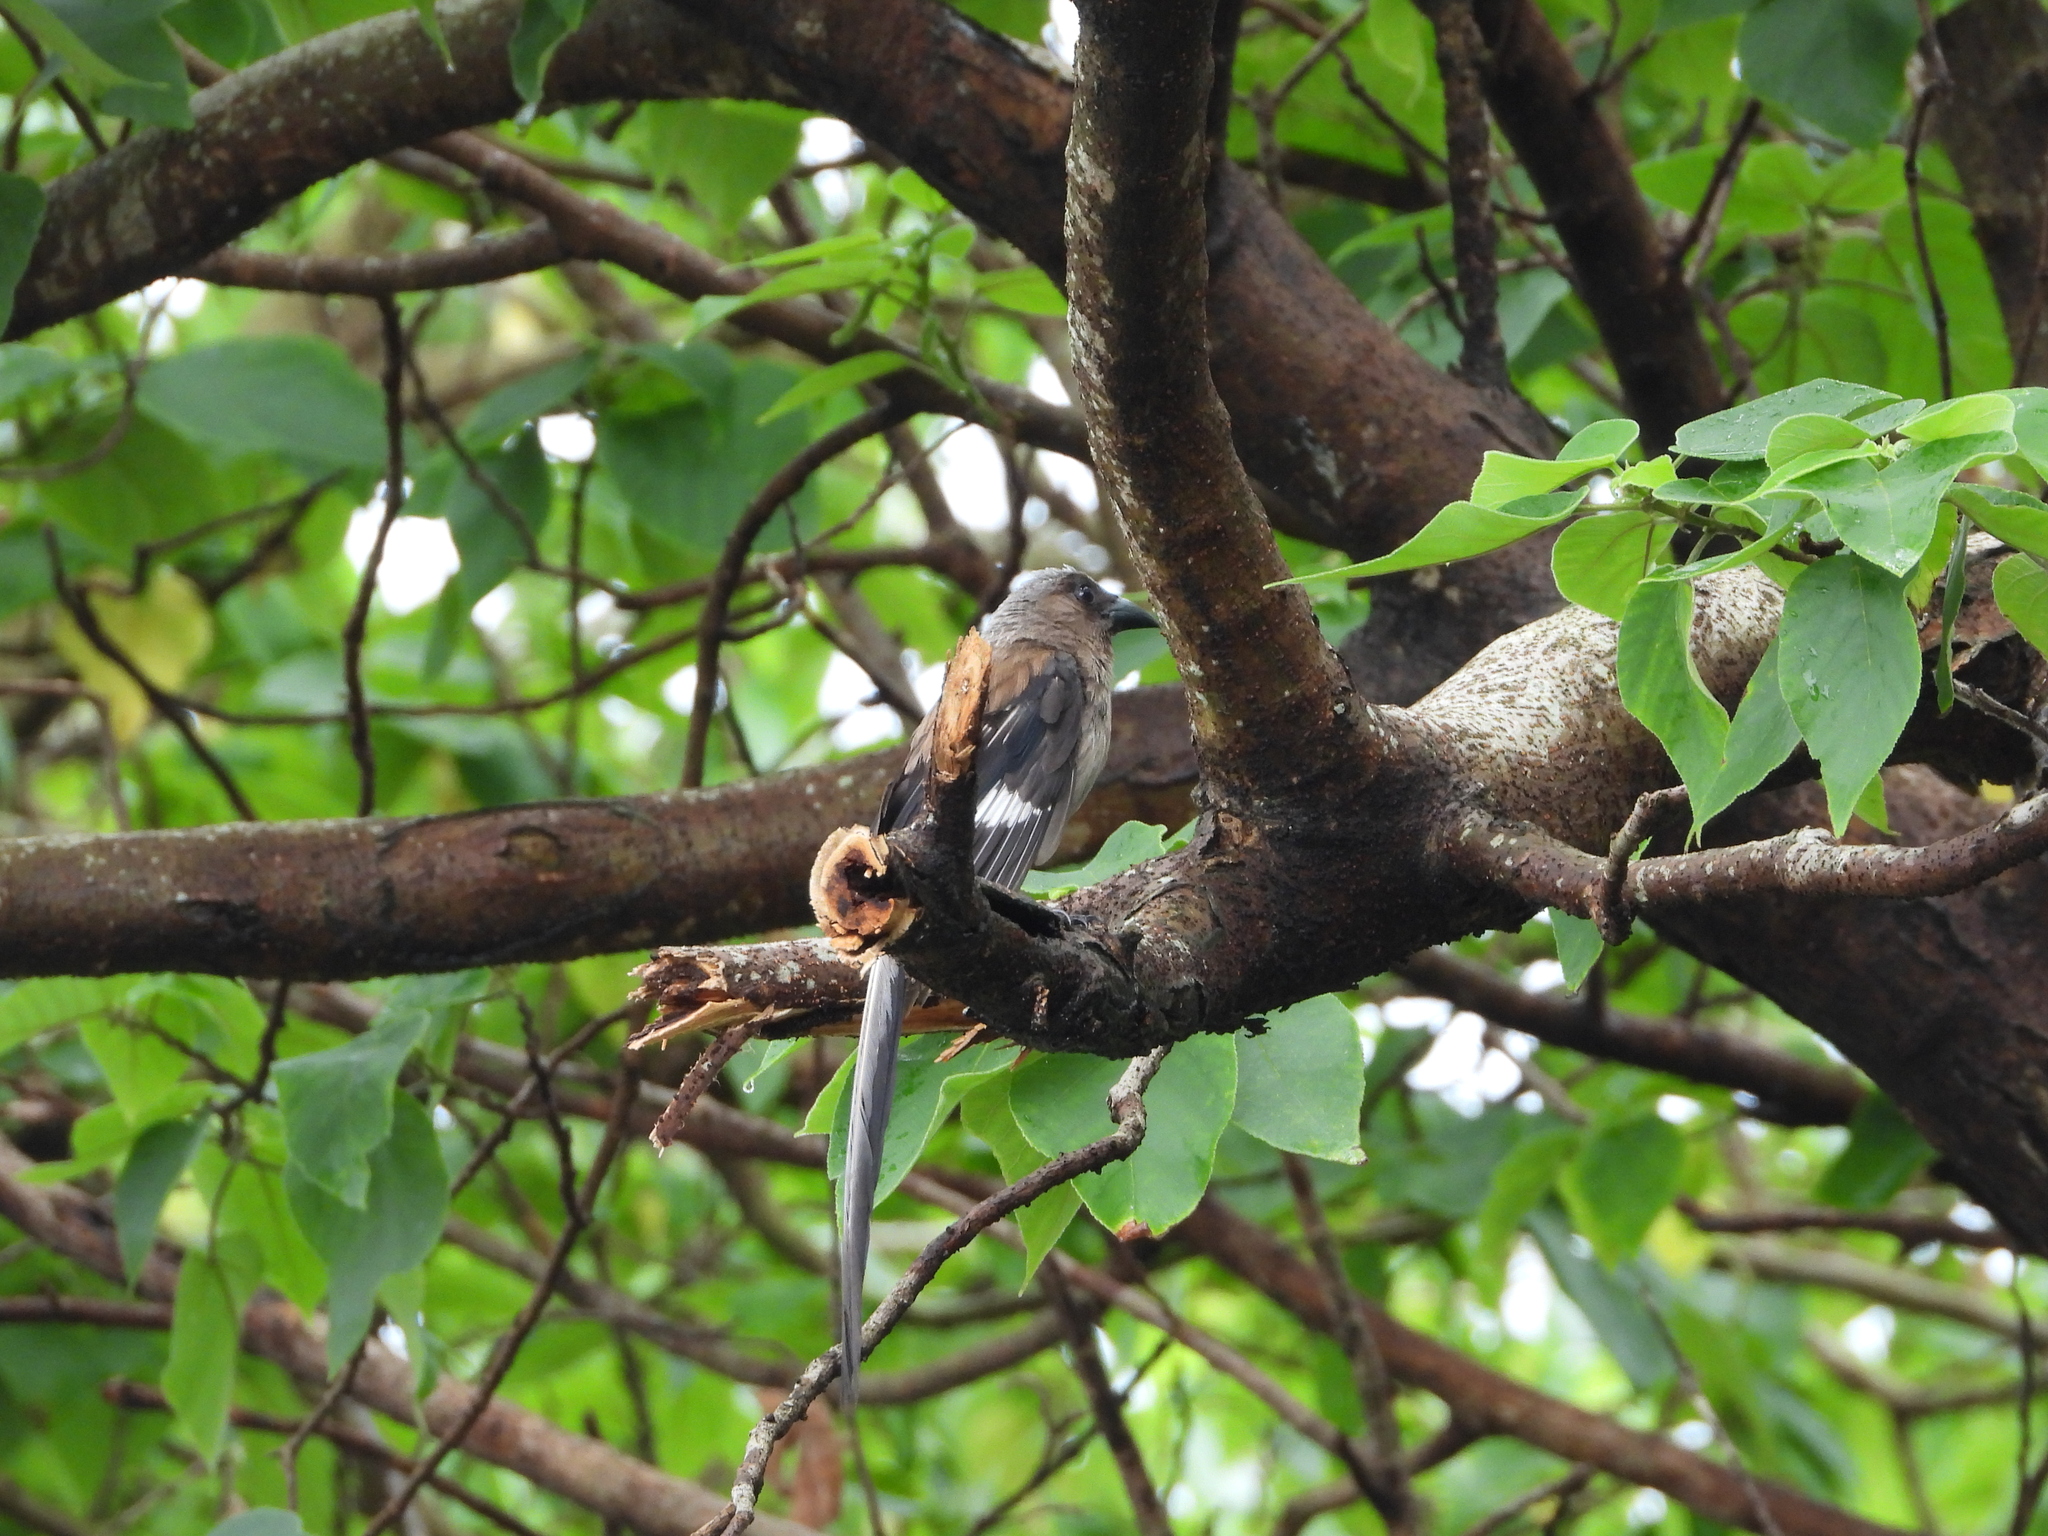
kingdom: Animalia
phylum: Chordata
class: Aves
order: Passeriformes
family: Corvidae
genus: Dendrocitta
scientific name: Dendrocitta formosae
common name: Grey treepie
